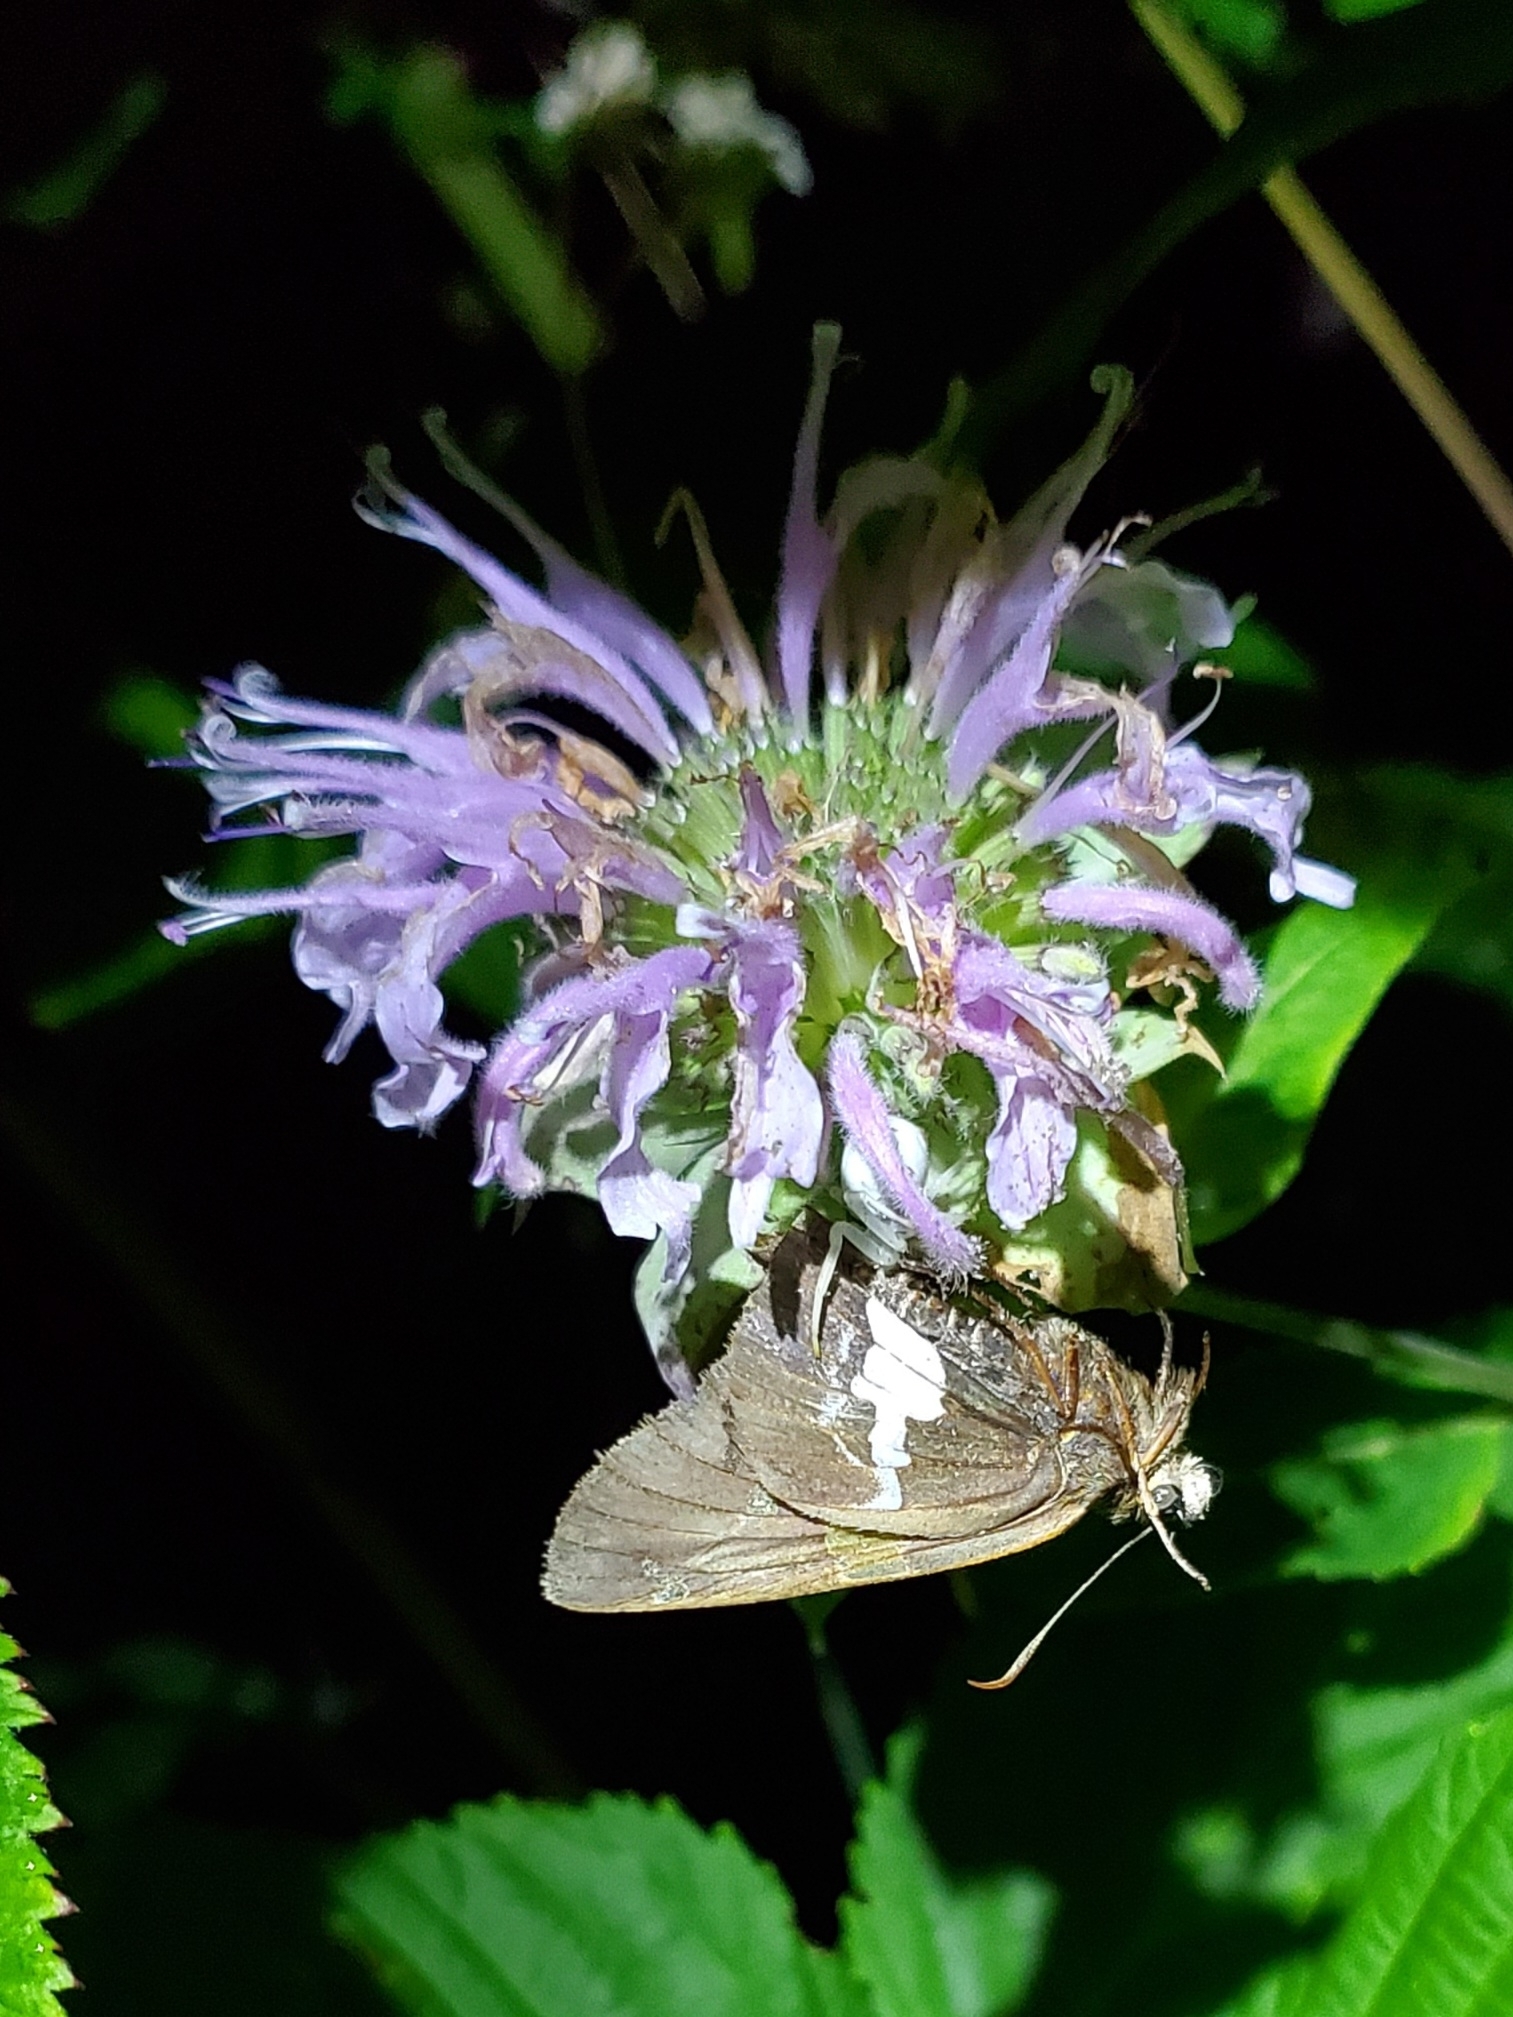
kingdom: Animalia
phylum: Arthropoda
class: Insecta
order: Lepidoptera
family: Hesperiidae
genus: Epargyreus
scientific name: Epargyreus clarus
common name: Silver-spotted skipper
